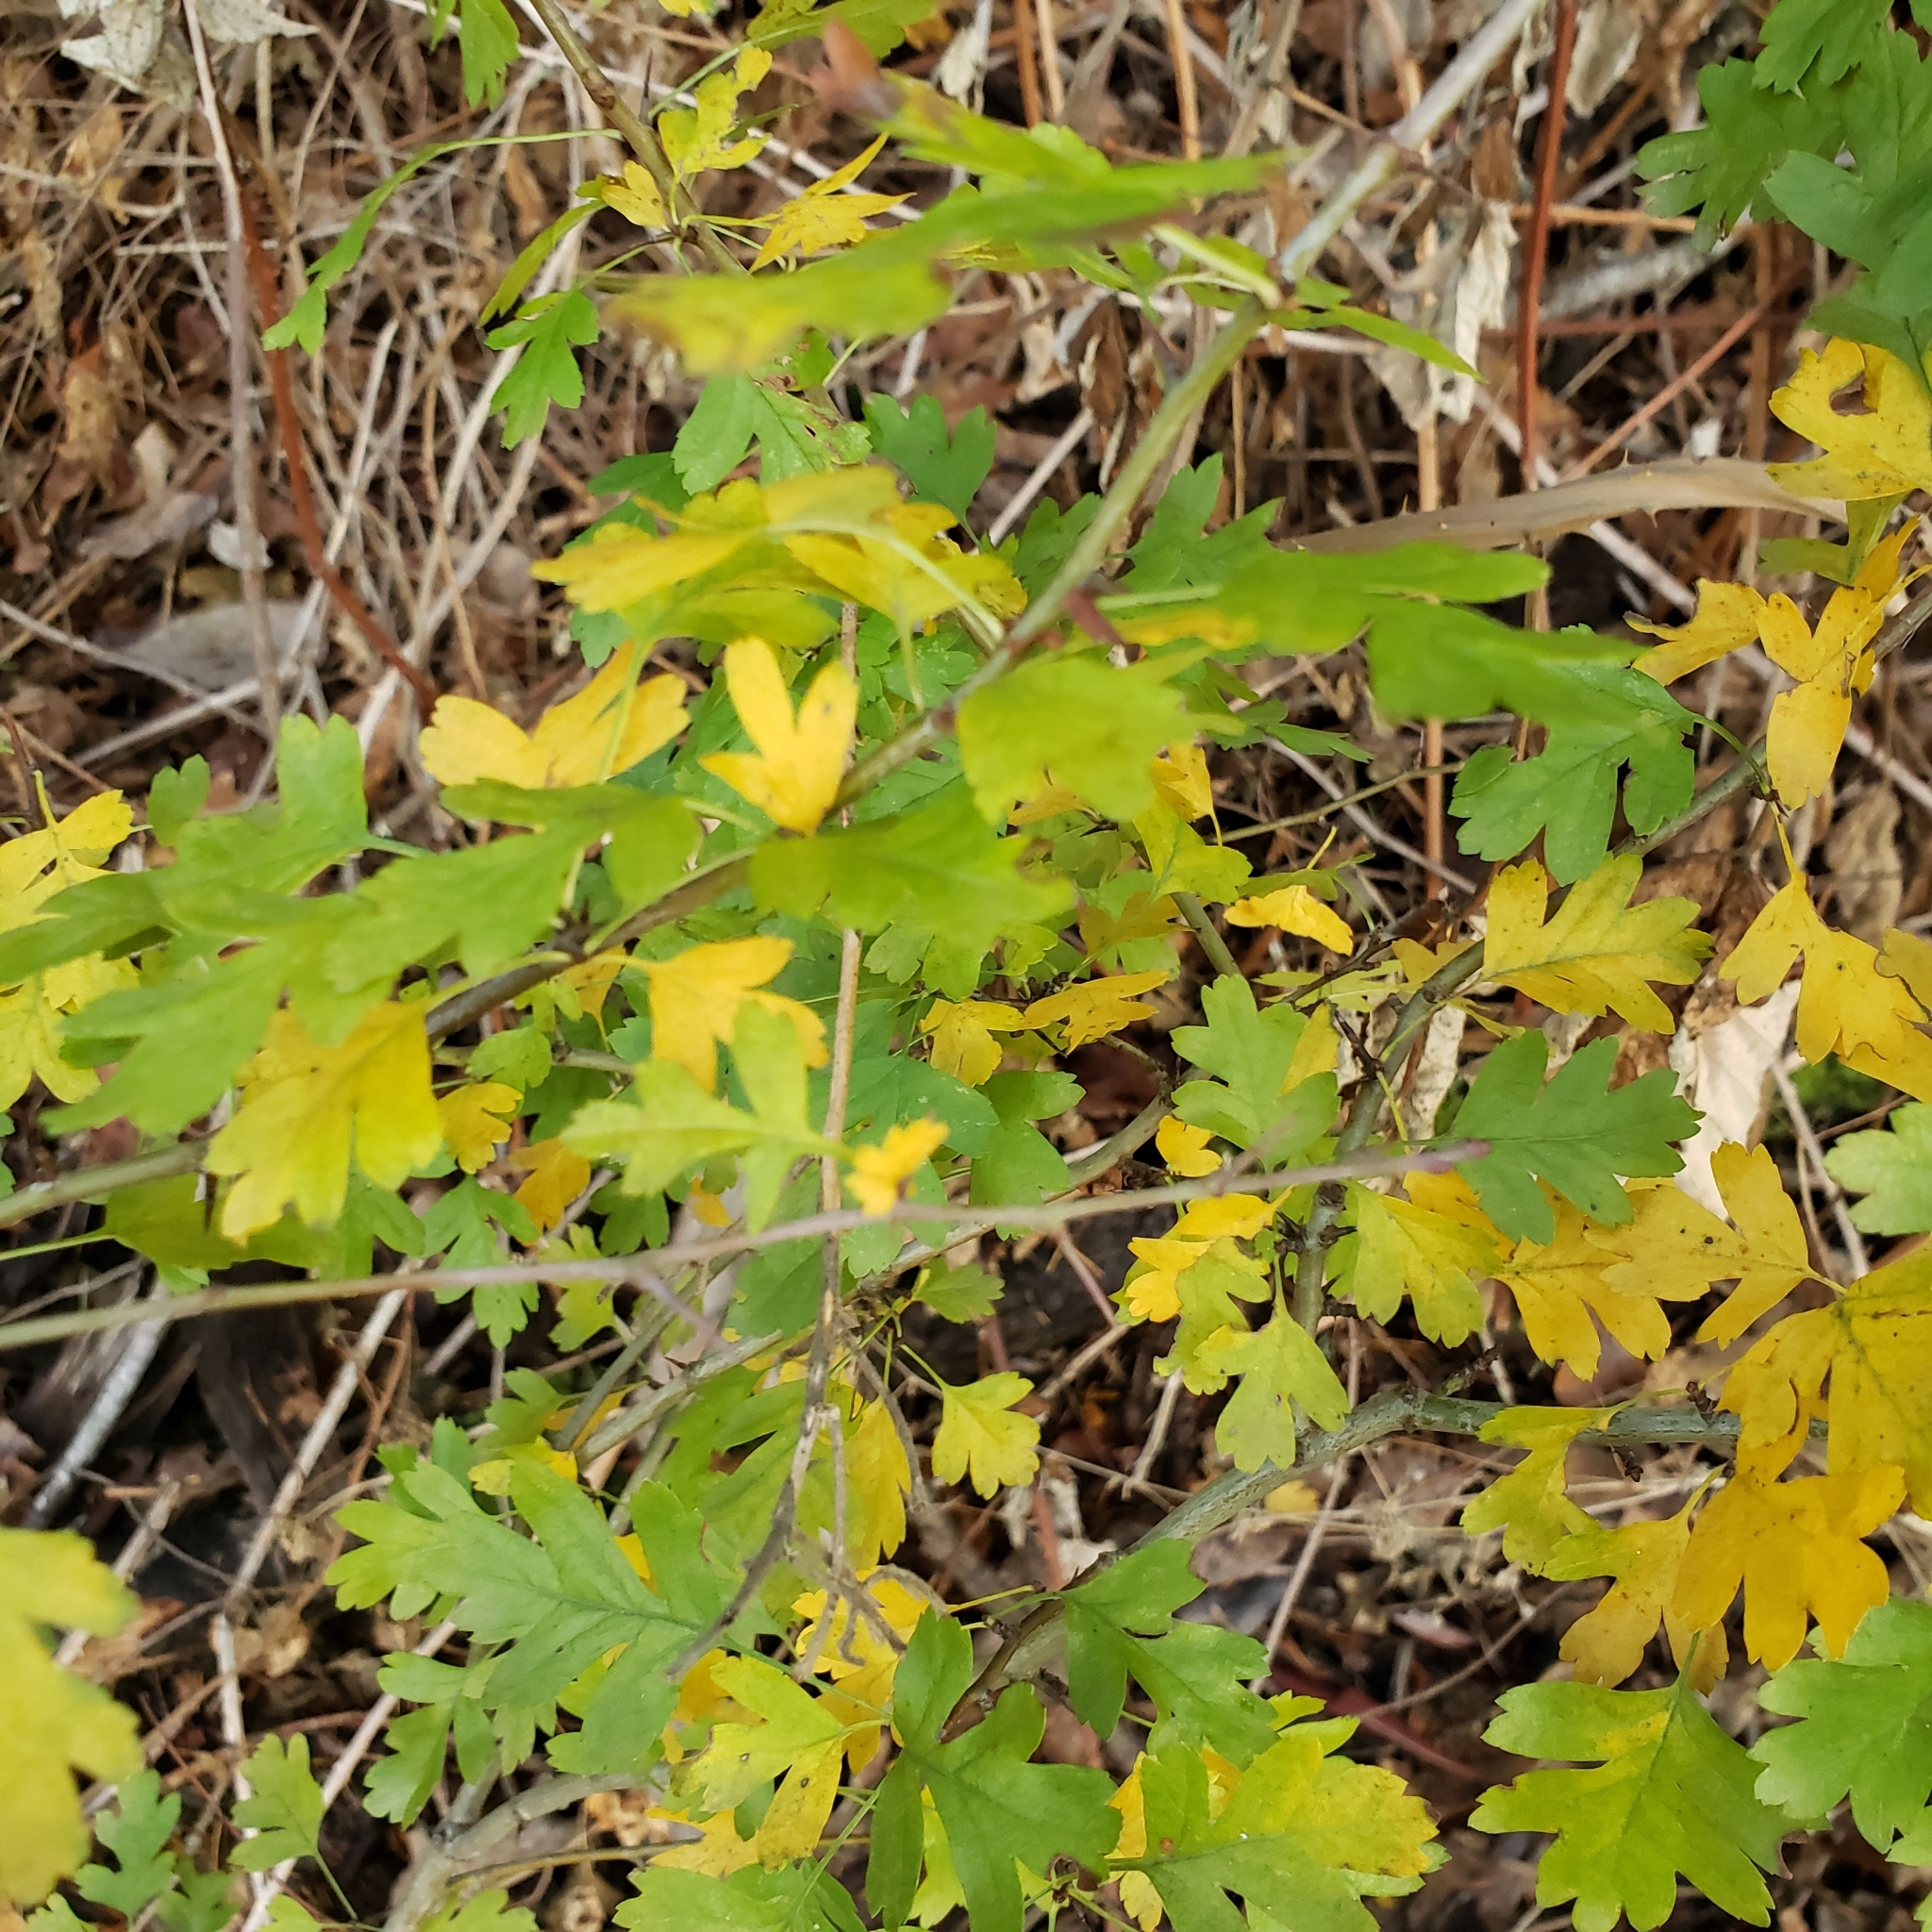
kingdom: Plantae
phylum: Tracheophyta
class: Magnoliopsida
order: Rosales
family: Rosaceae
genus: Crataegus
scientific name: Crataegus monogyna
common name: Hawthorn
